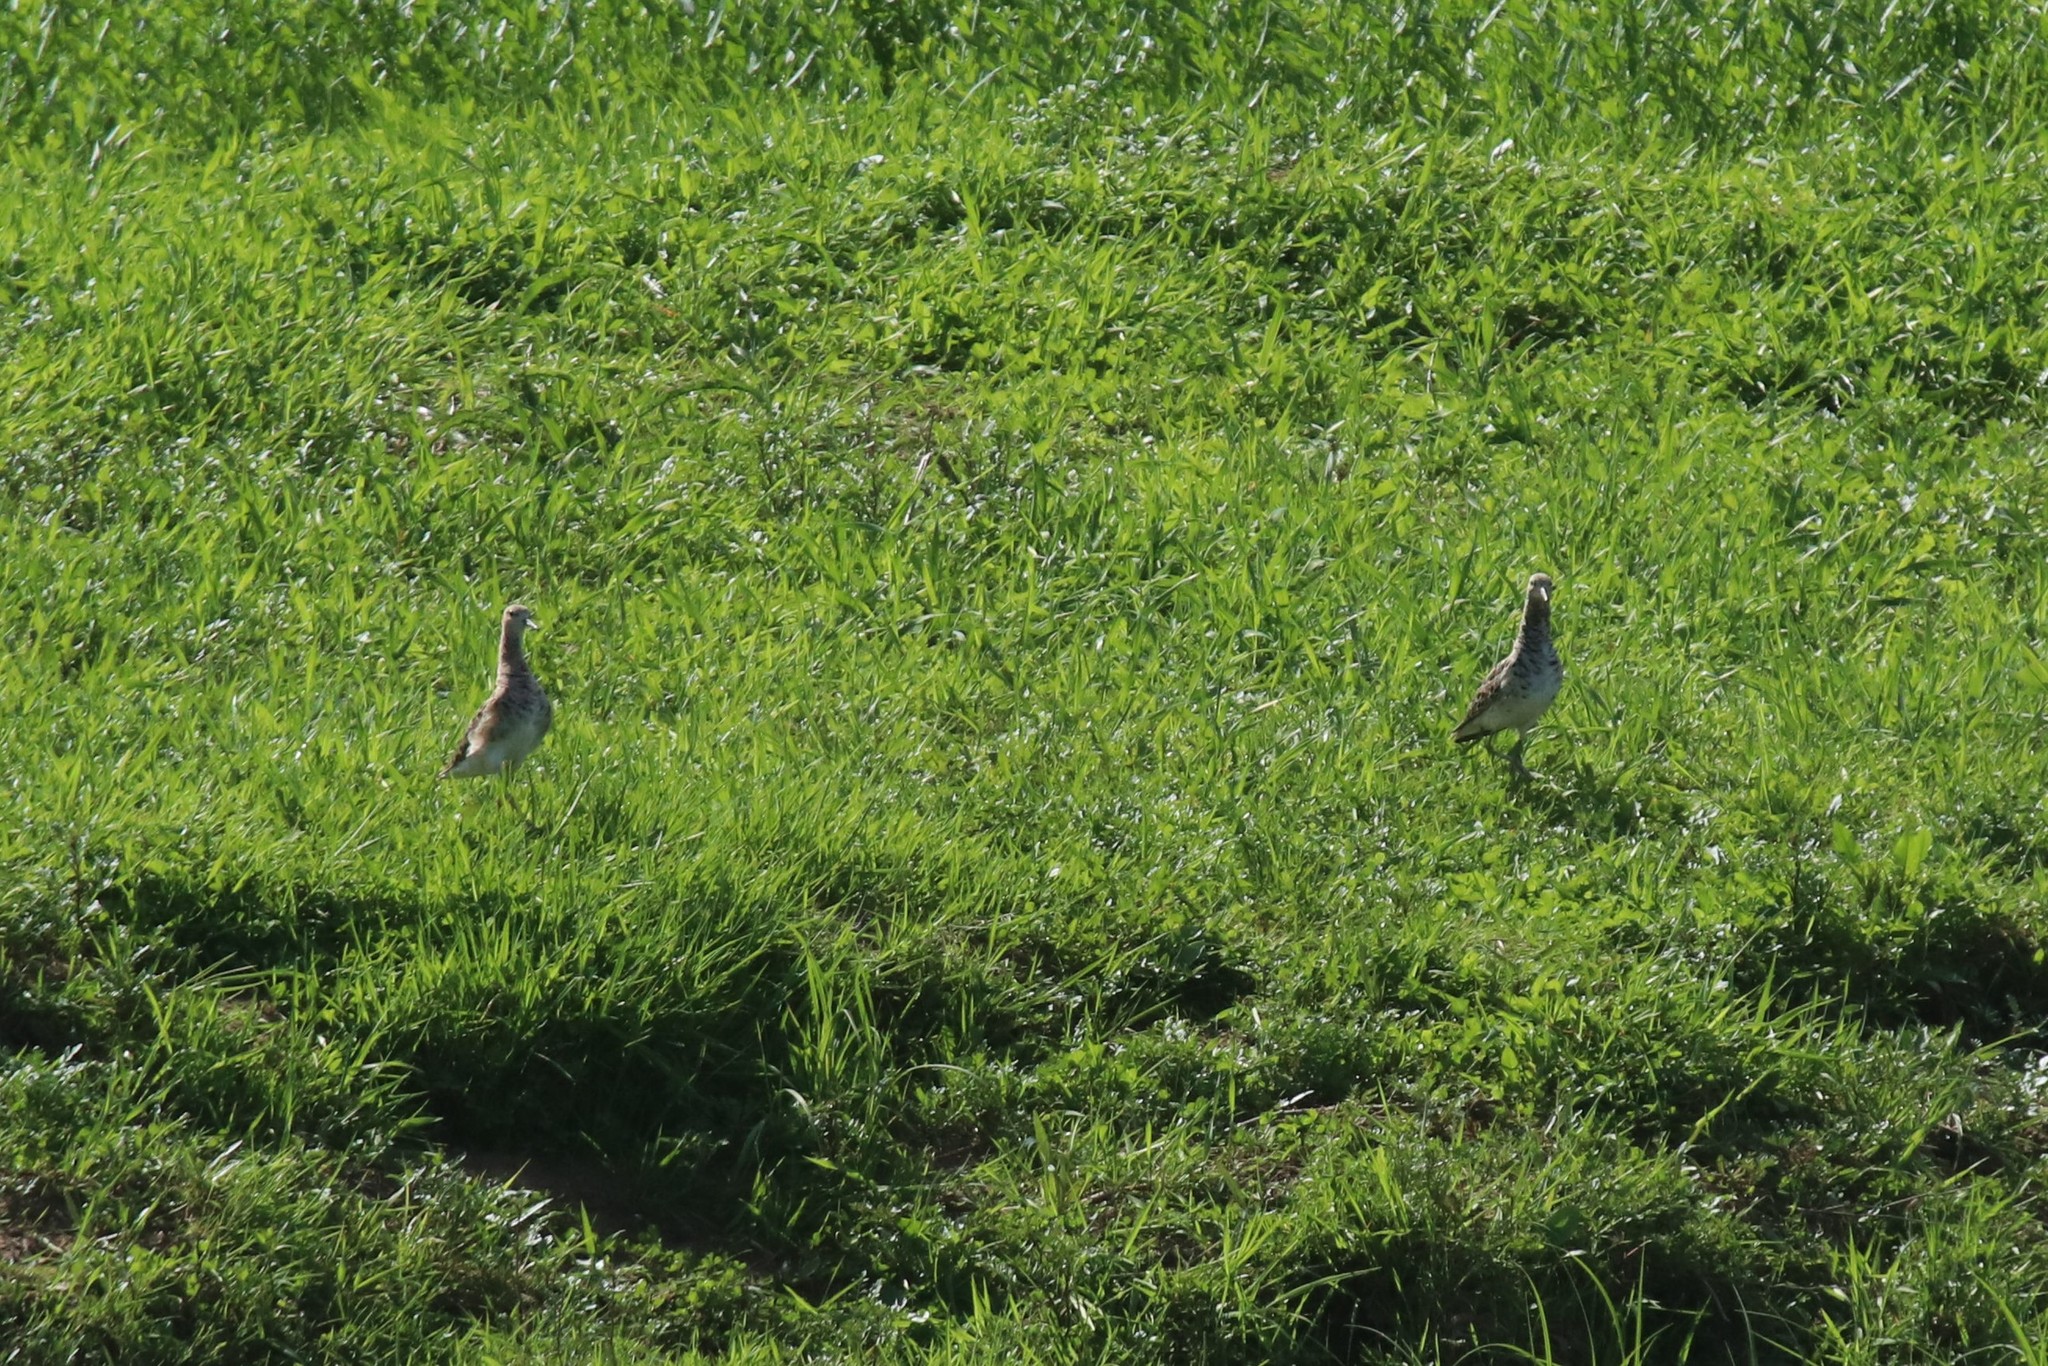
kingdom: Animalia
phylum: Chordata
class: Aves
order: Charadriiformes
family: Scolopacidae
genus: Calidris
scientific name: Calidris pugnax
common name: Ruff
